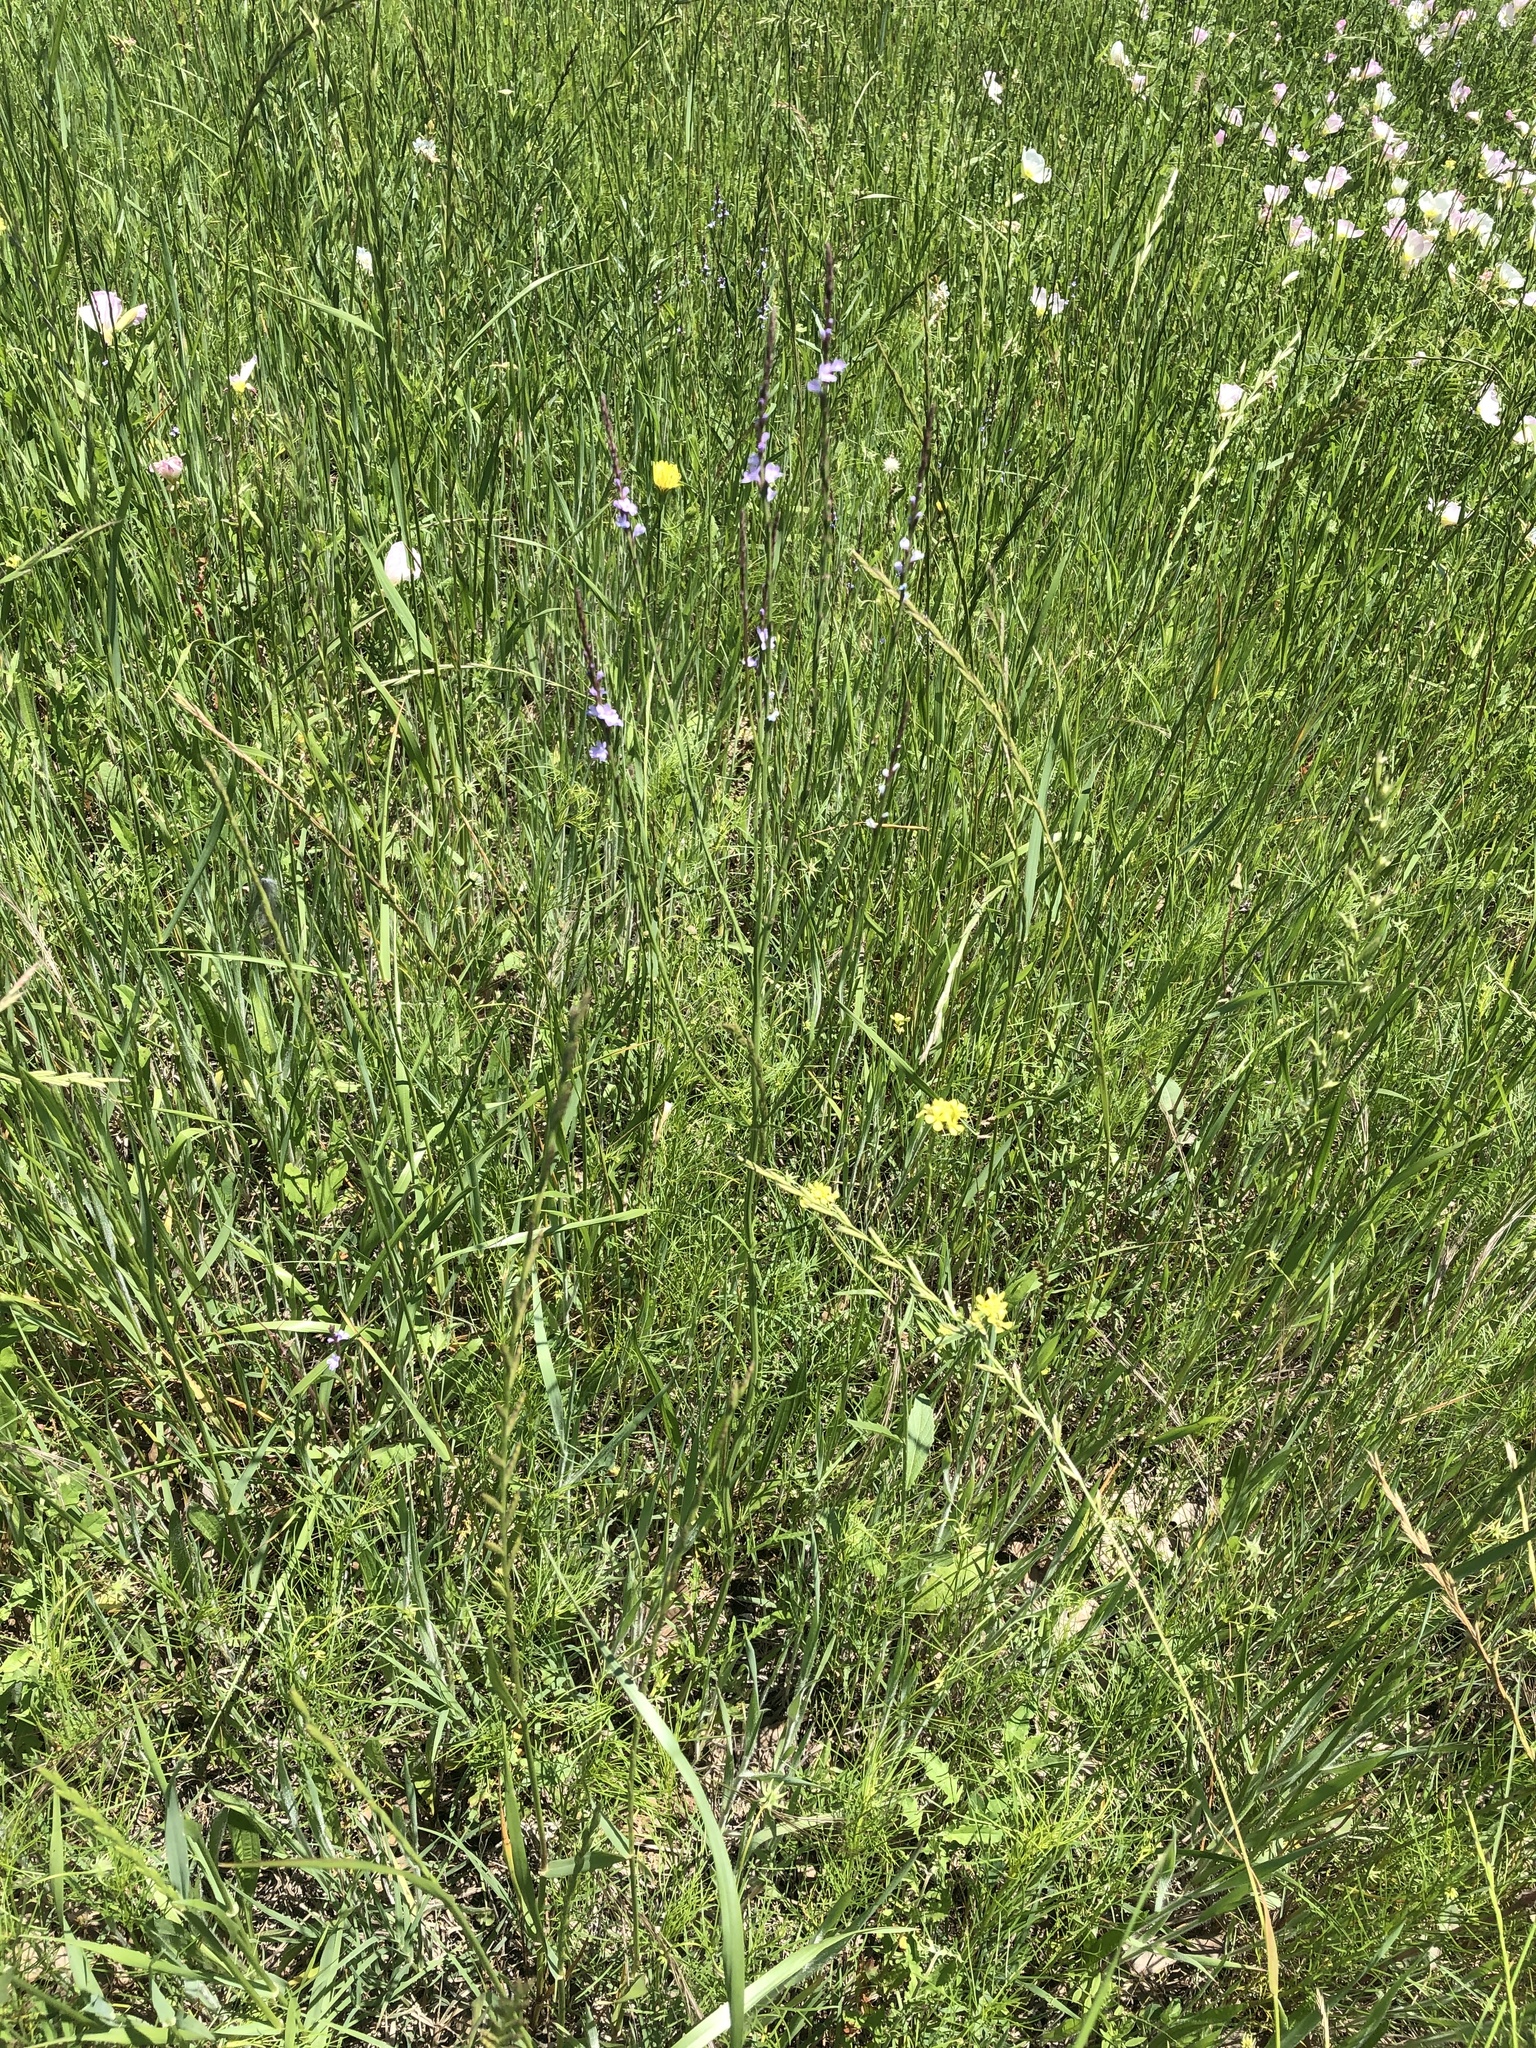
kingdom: Plantae
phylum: Tracheophyta
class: Magnoliopsida
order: Lamiales
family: Verbenaceae
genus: Verbena
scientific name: Verbena halei
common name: Texas vervain
